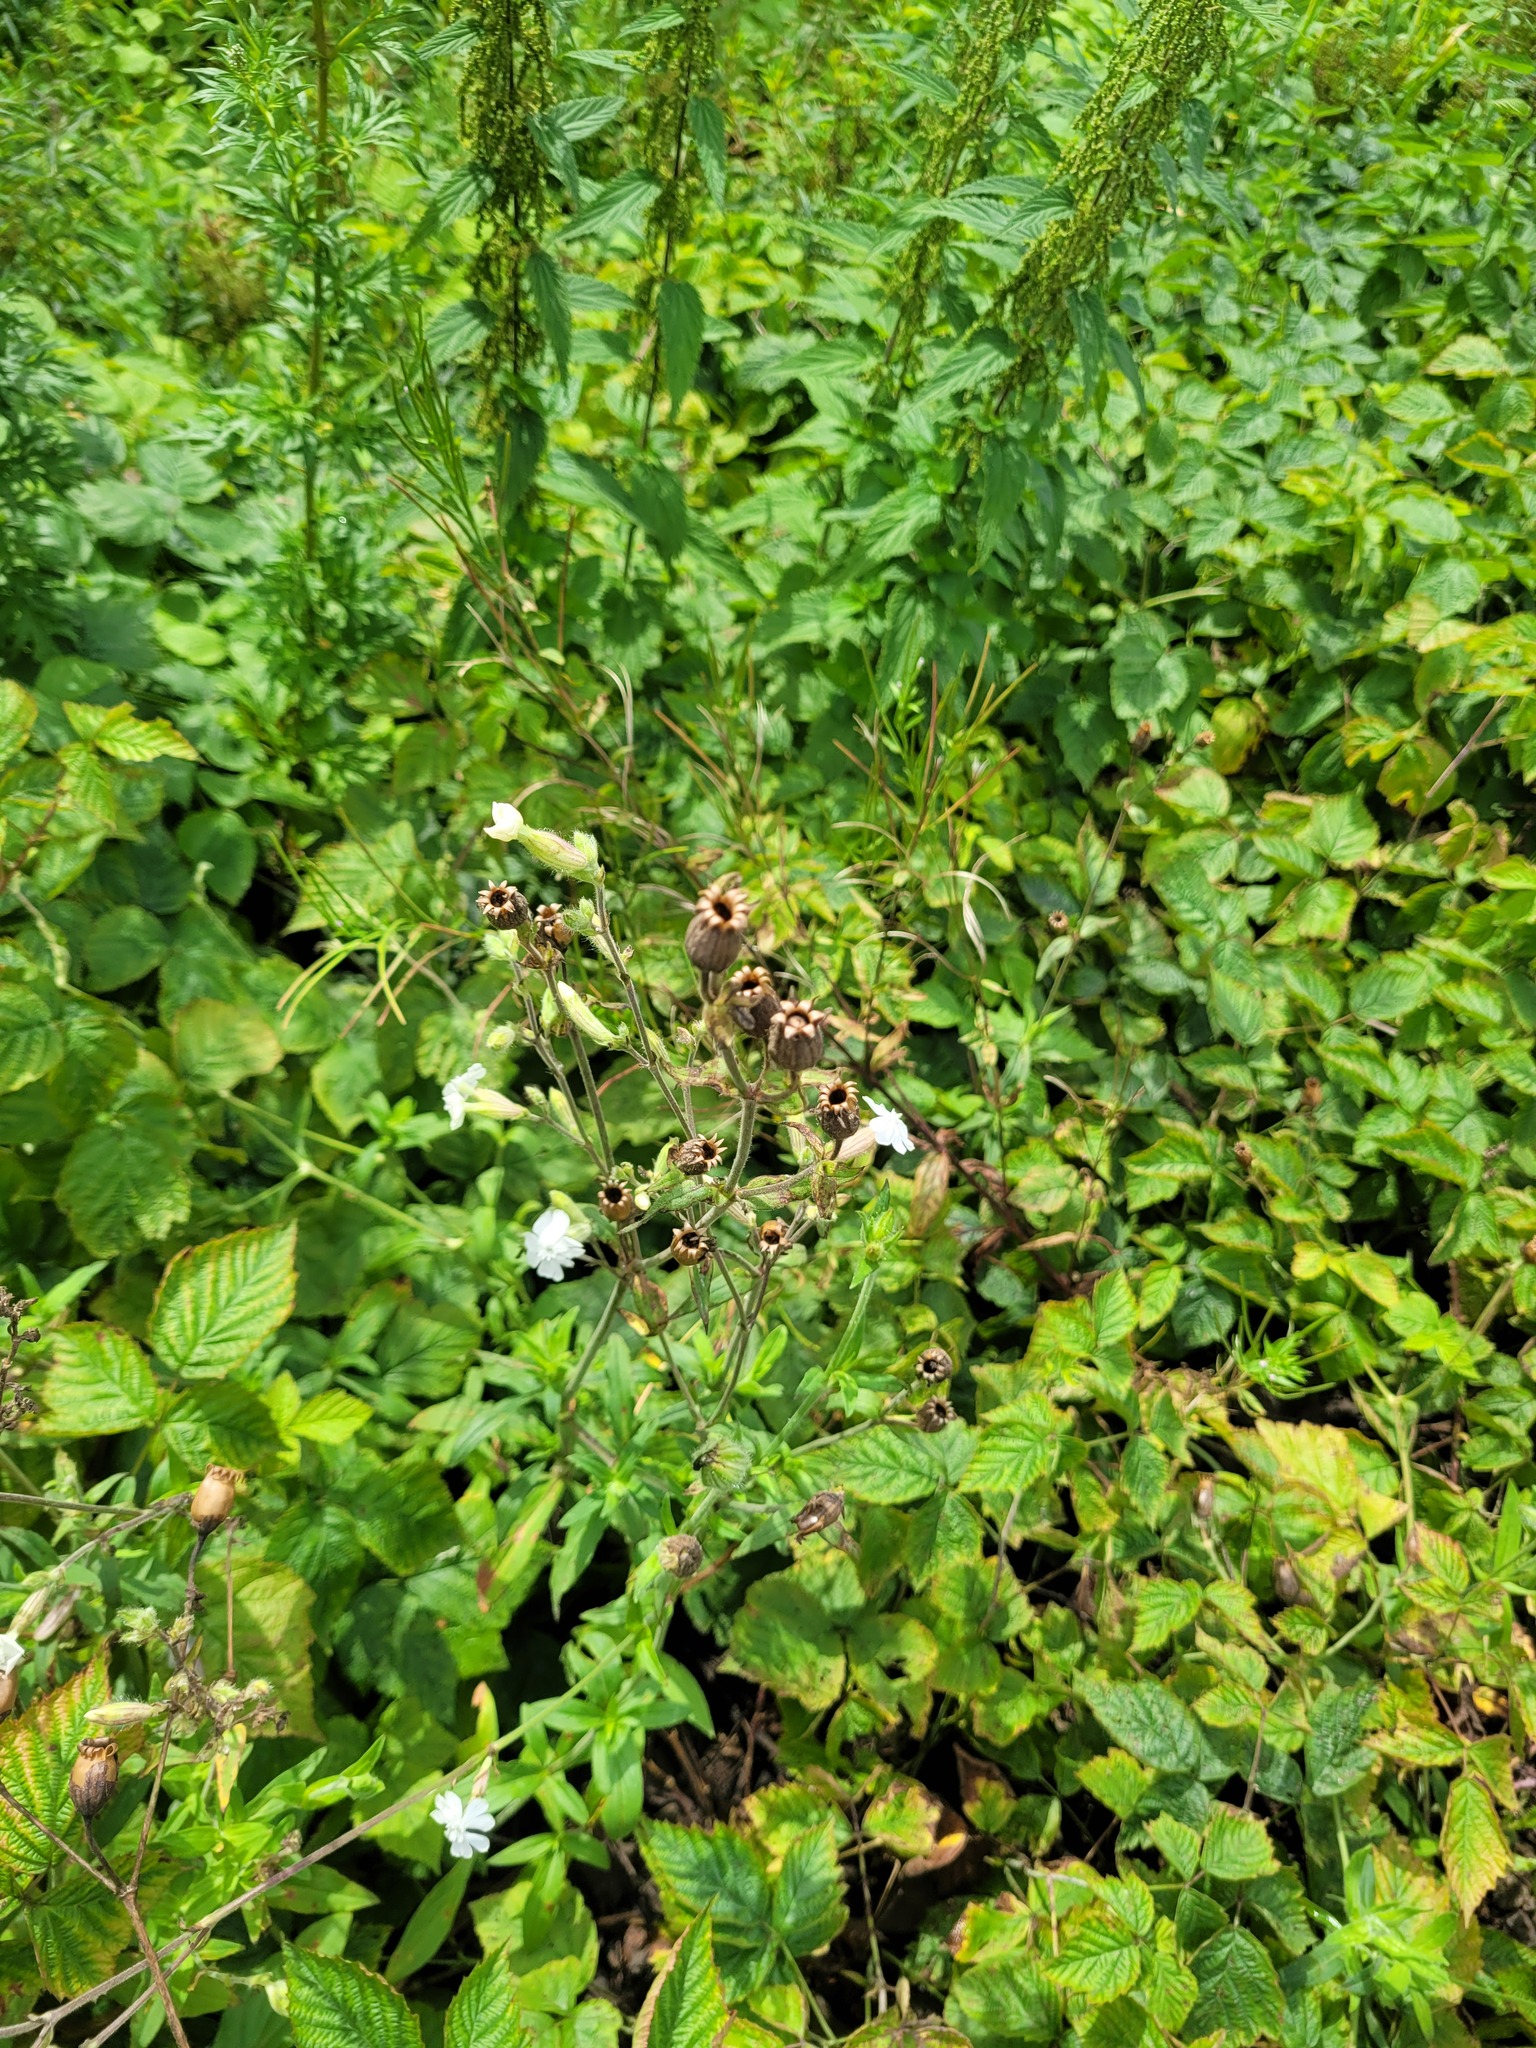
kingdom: Plantae
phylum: Tracheophyta
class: Magnoliopsida
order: Caryophyllales
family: Caryophyllaceae
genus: Silene
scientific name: Silene latifolia
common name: White campion
